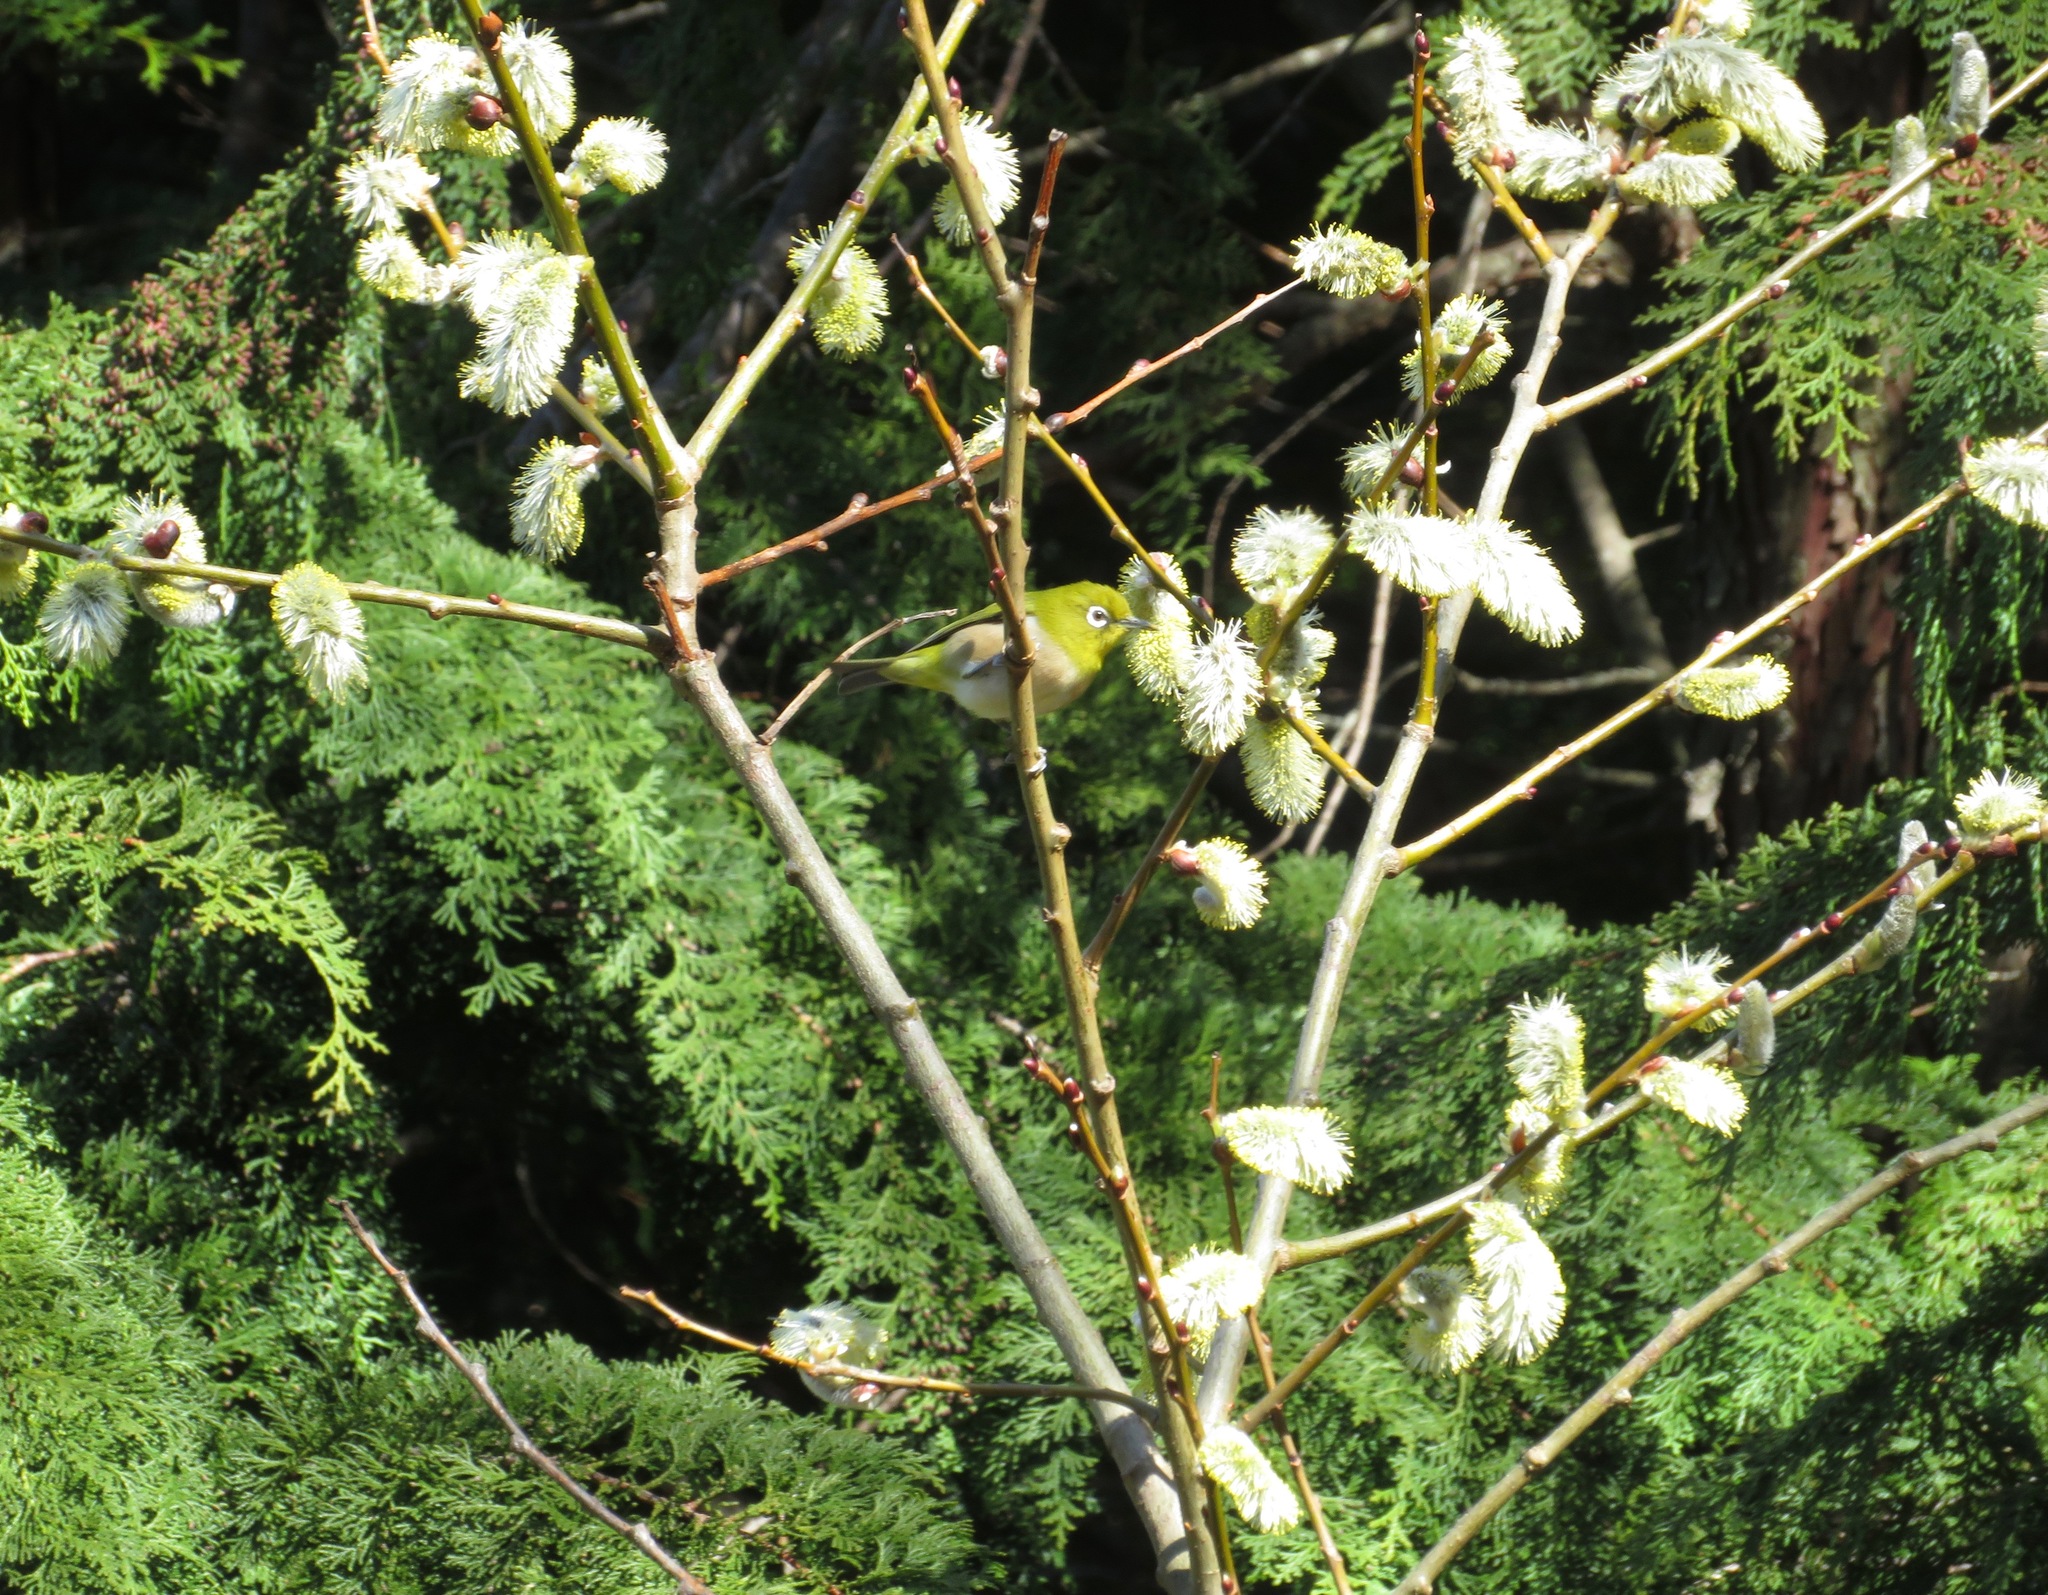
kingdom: Animalia
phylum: Chordata
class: Aves
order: Passeriformes
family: Zosteropidae
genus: Zosterops
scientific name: Zosterops japonicus
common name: Japanese white-eye
